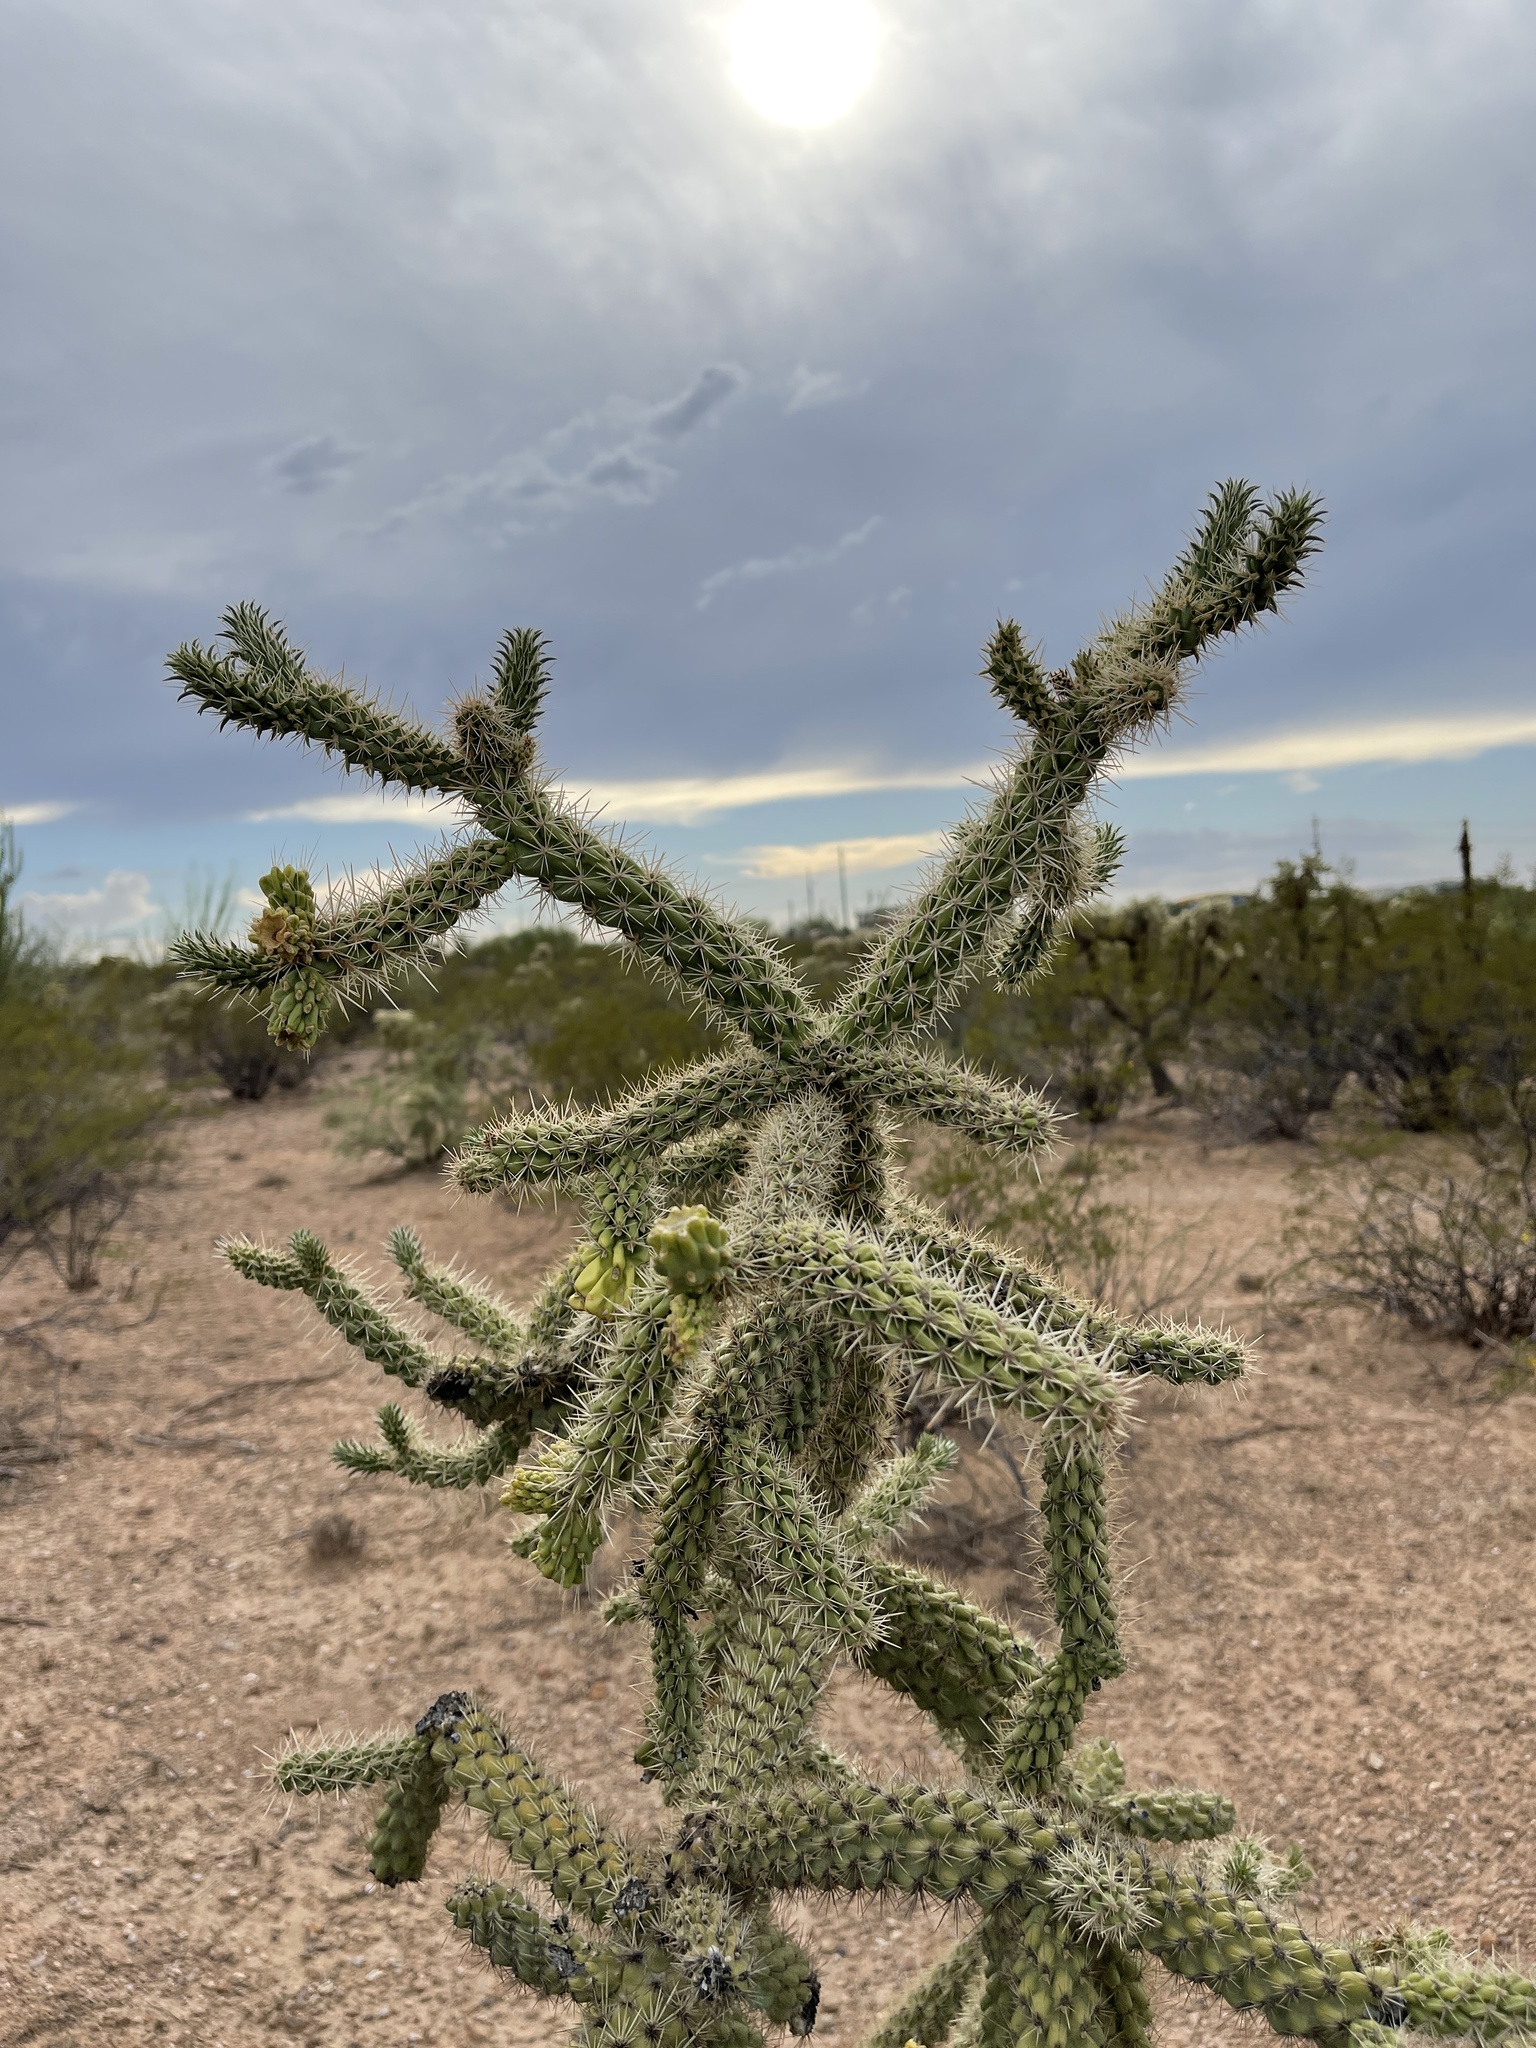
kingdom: Plantae
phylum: Tracheophyta
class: Magnoliopsida
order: Caryophyllales
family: Cactaceae
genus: Cylindropuntia
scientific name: Cylindropuntia imbricata
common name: Candelabrum cactus
